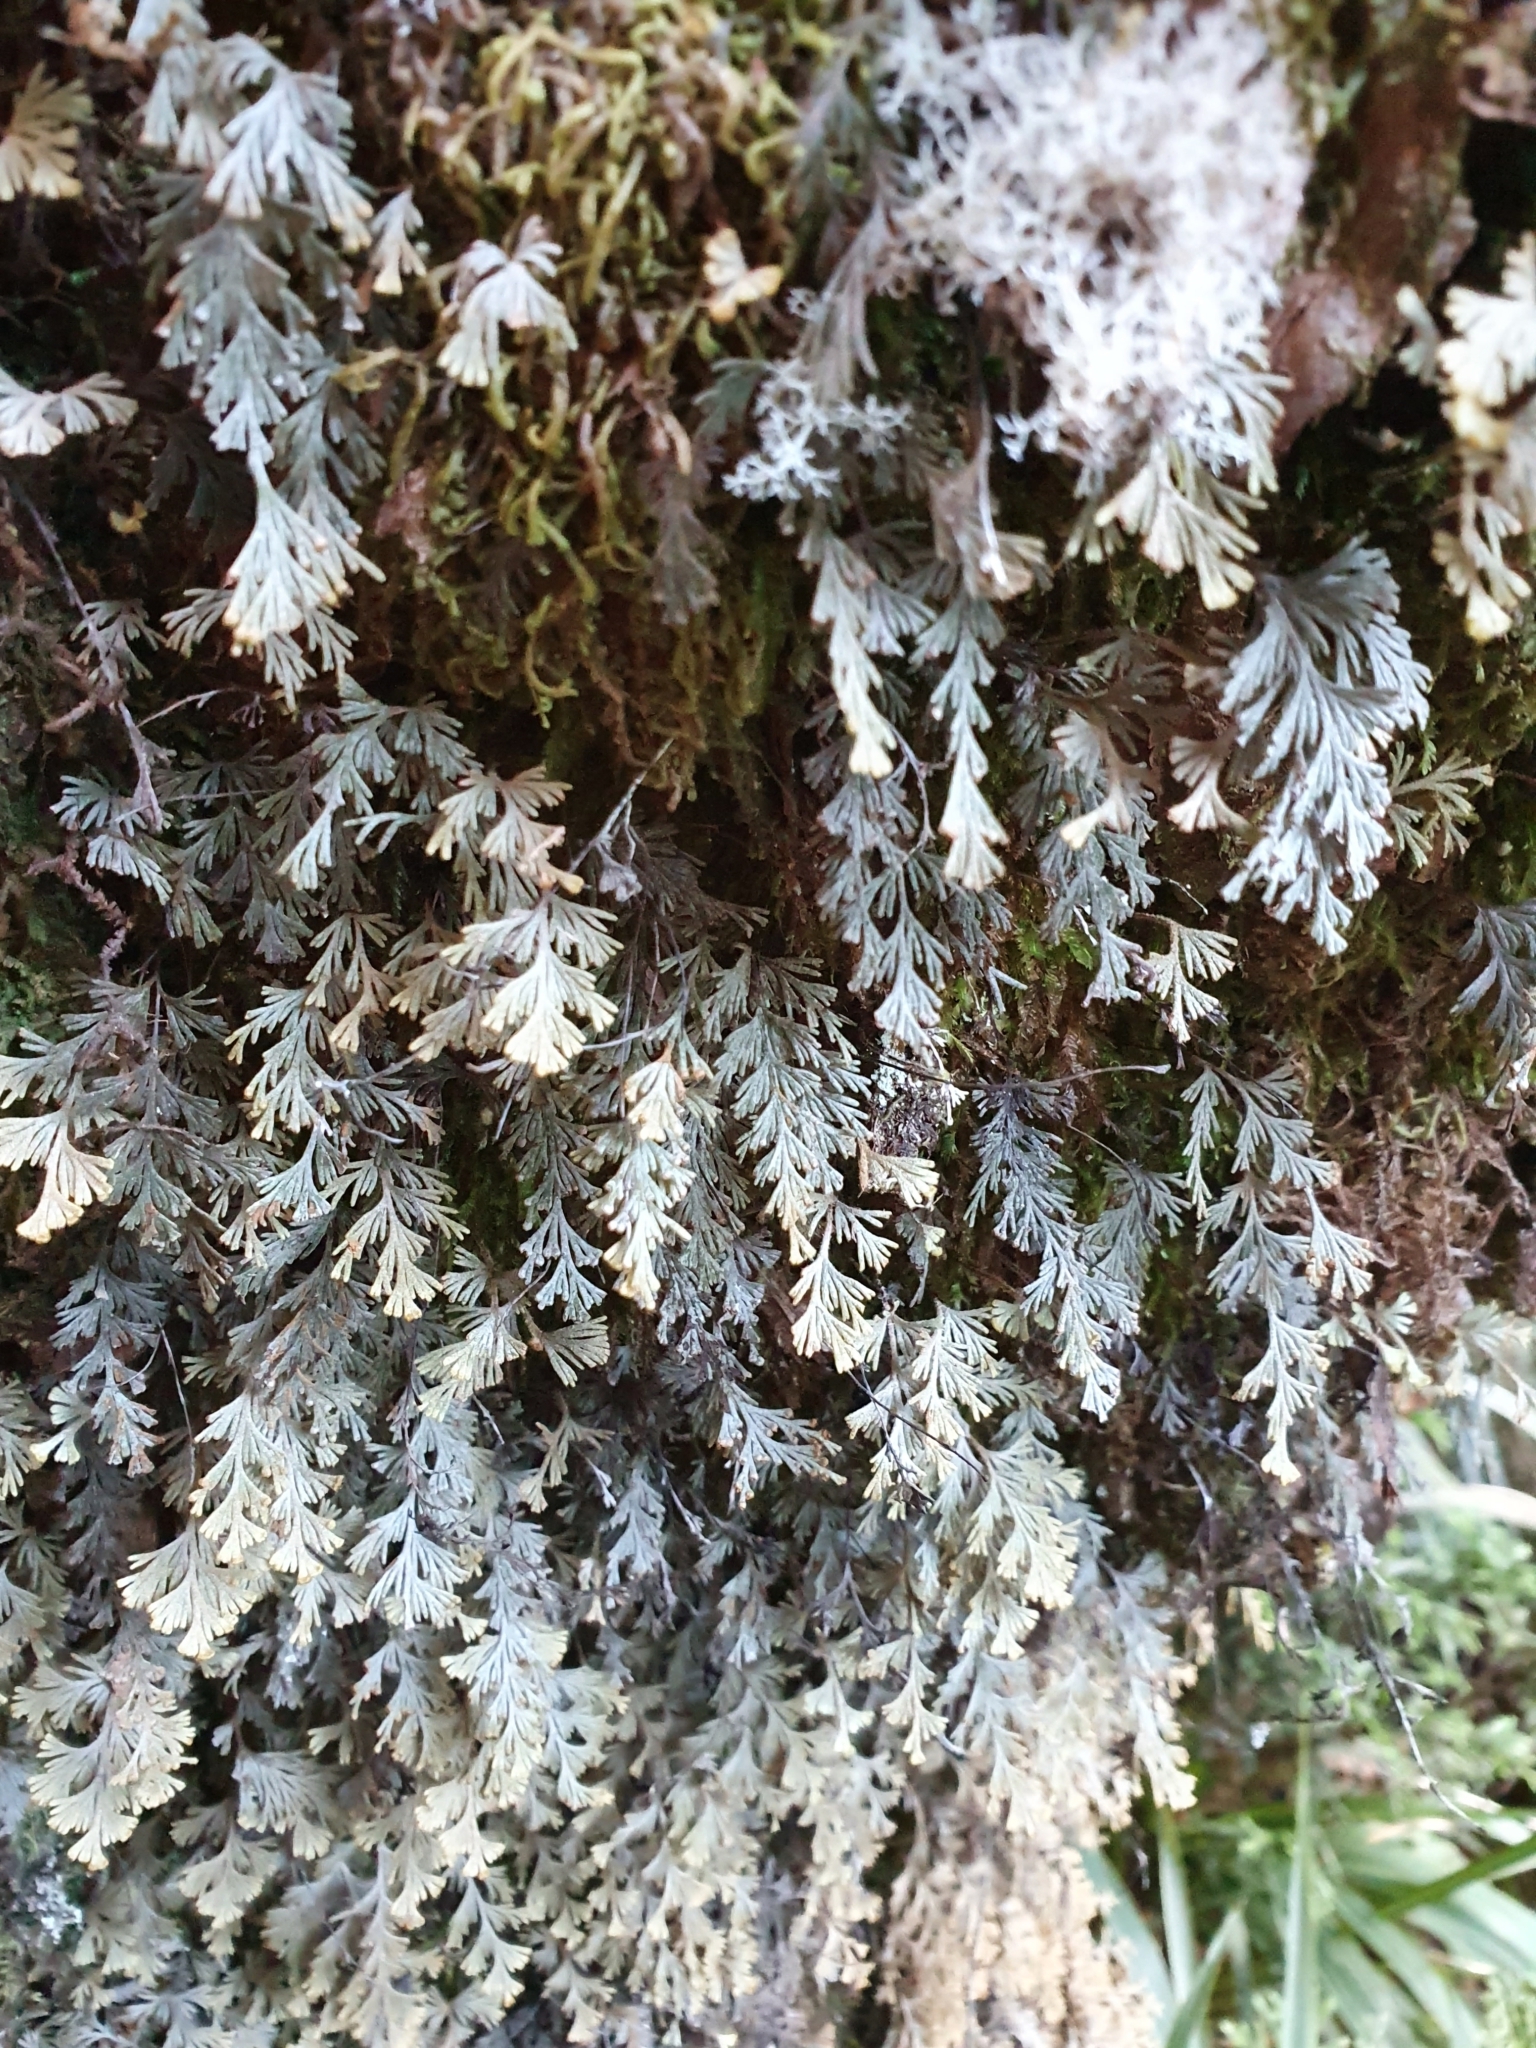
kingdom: Plantae
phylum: Tracheophyta
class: Polypodiopsida
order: Hymenophyllales
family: Hymenophyllaceae
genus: Hymenophyllum
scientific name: Hymenophyllum malingii
